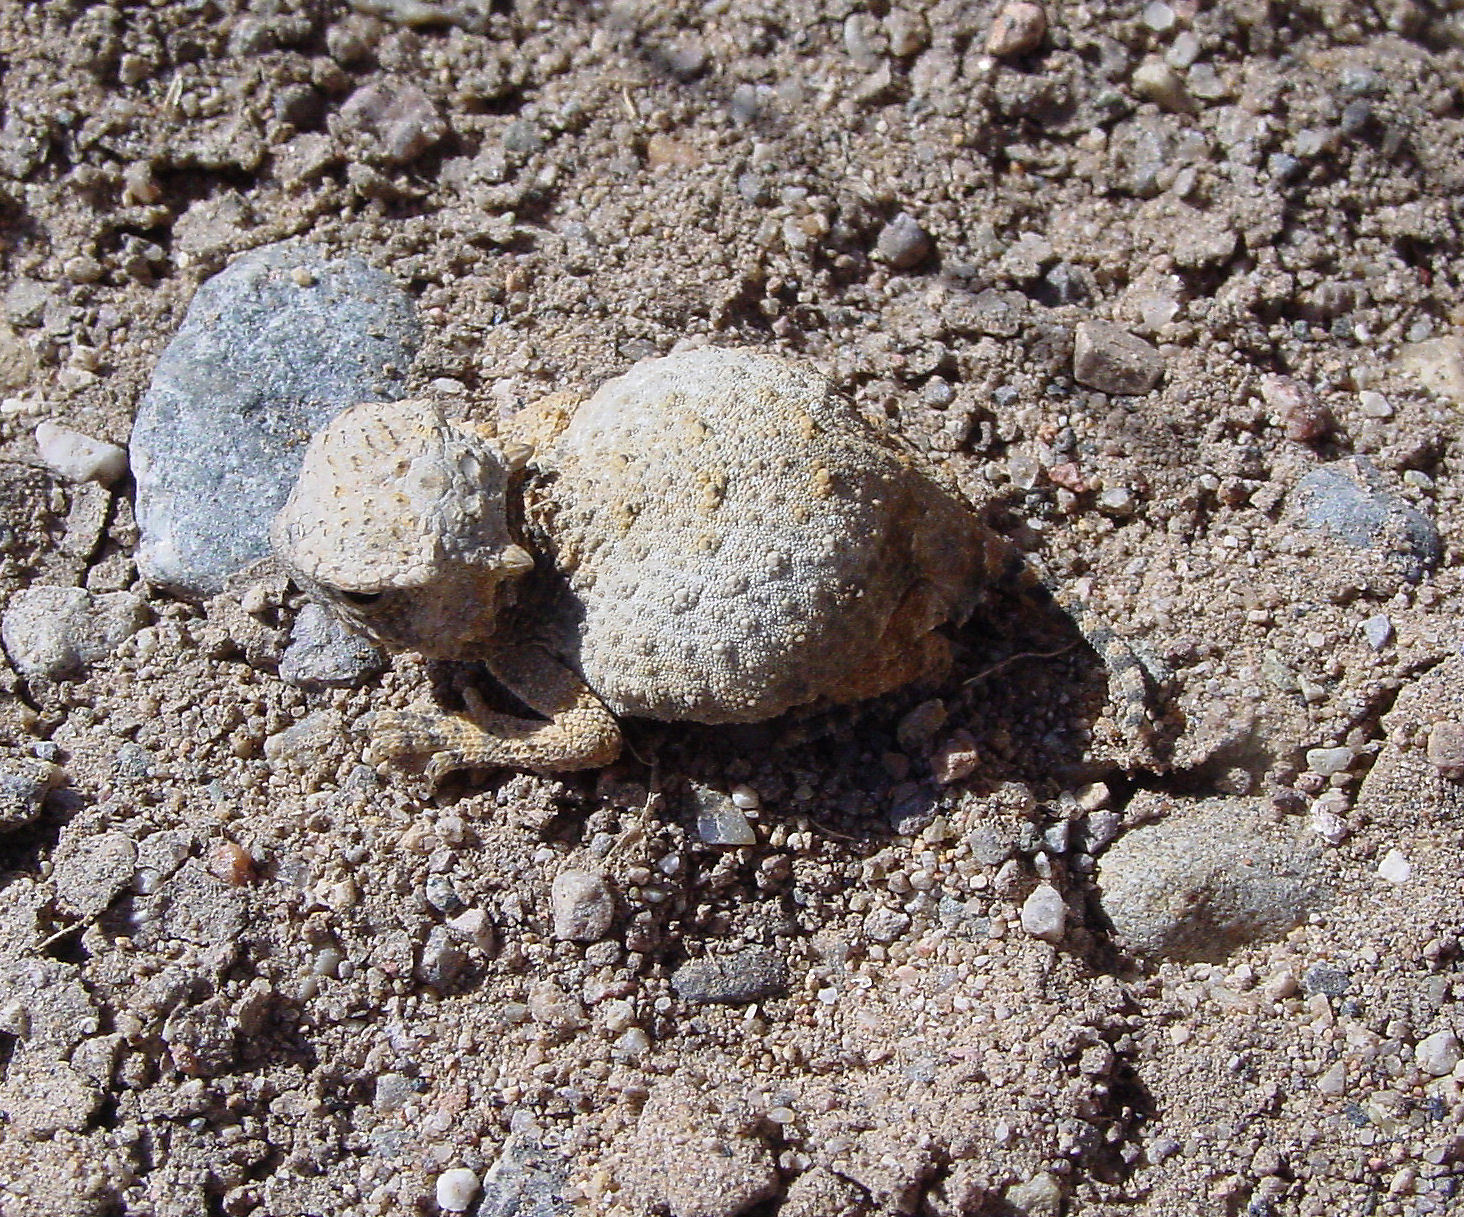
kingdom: Animalia
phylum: Chordata
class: Squamata
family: Phrynosomatidae
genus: Phrynosoma
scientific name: Phrynosoma modestum
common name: Roundtail horned lizard
